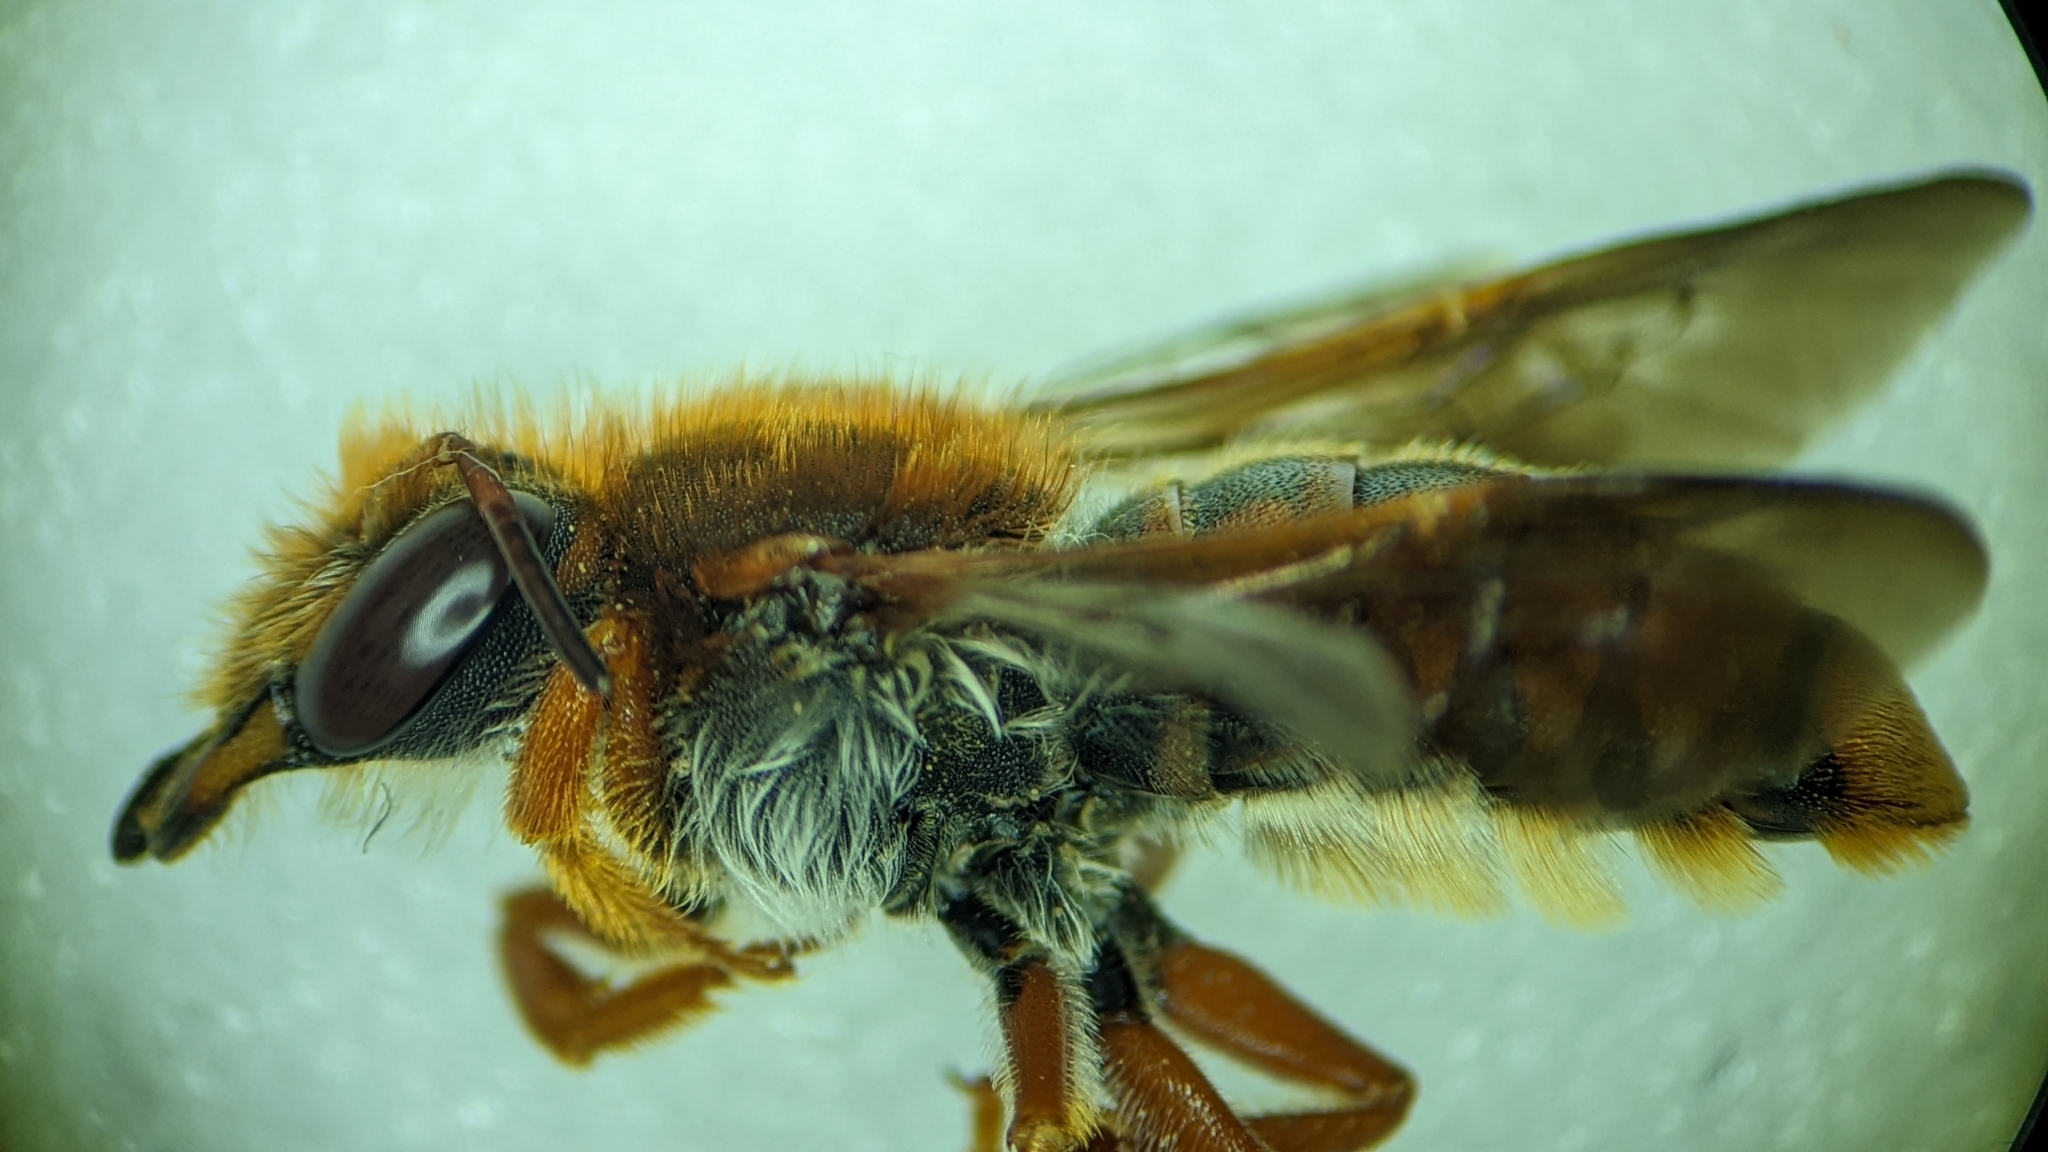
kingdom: Animalia
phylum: Arthropoda
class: Insecta
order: Hymenoptera
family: Megachilidae
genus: Rhodanthidium
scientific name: Rhodanthidium sticticum
